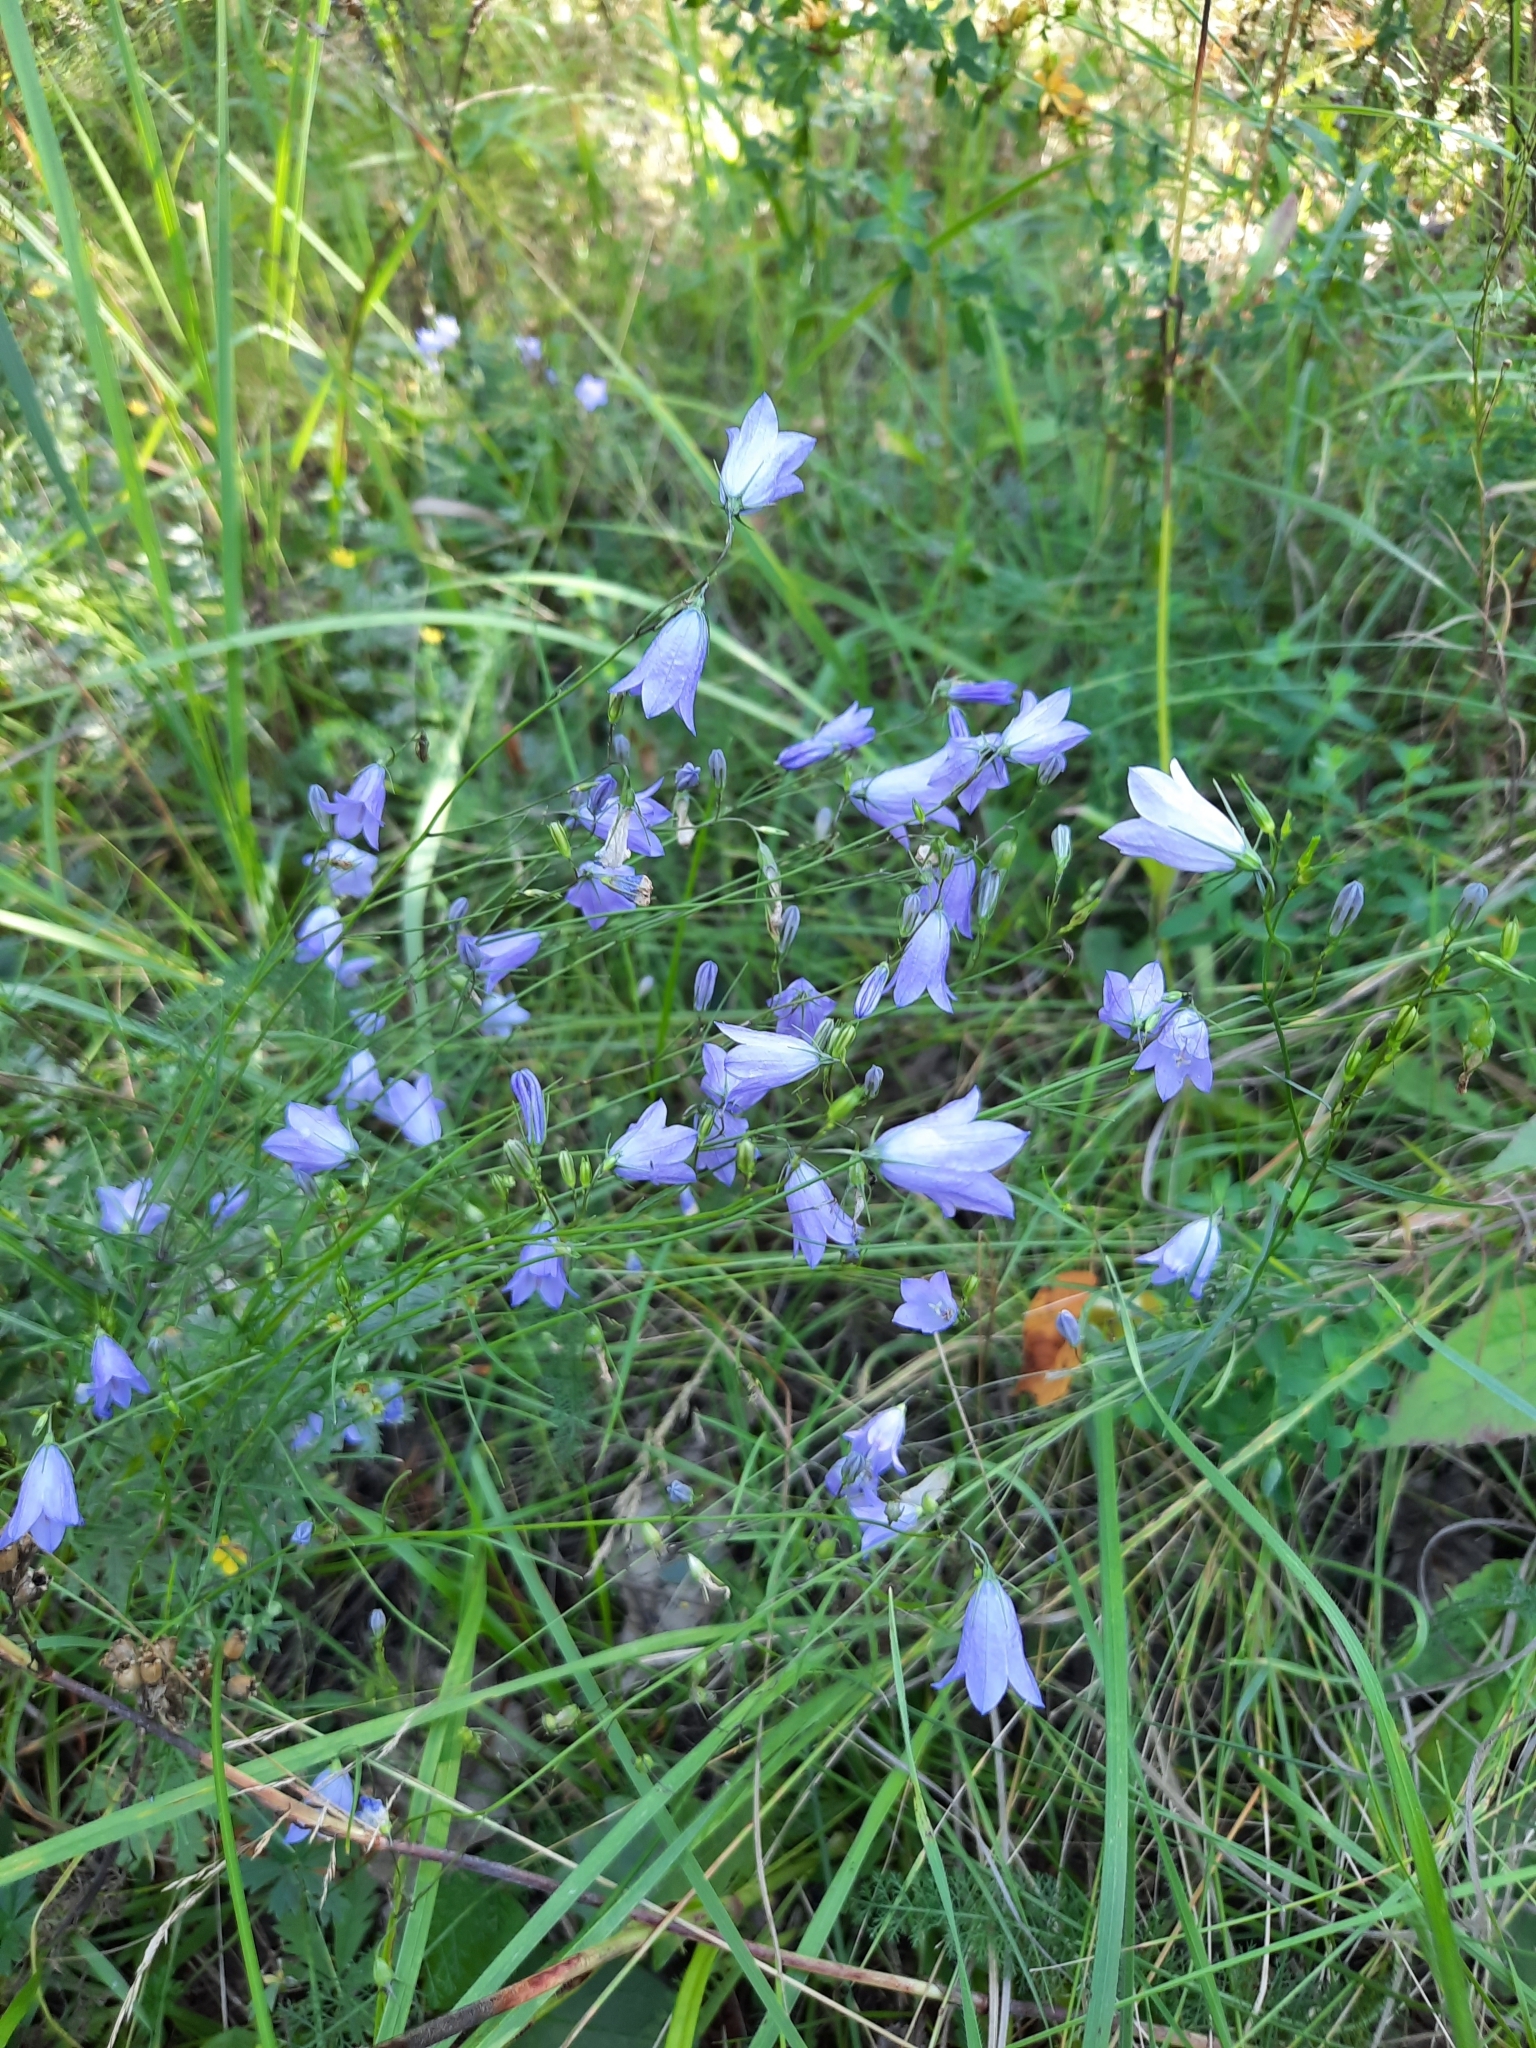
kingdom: Plantae
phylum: Tracheophyta
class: Magnoliopsida
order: Asterales
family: Campanulaceae
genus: Campanula
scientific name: Campanula rotundifolia
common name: Harebell
